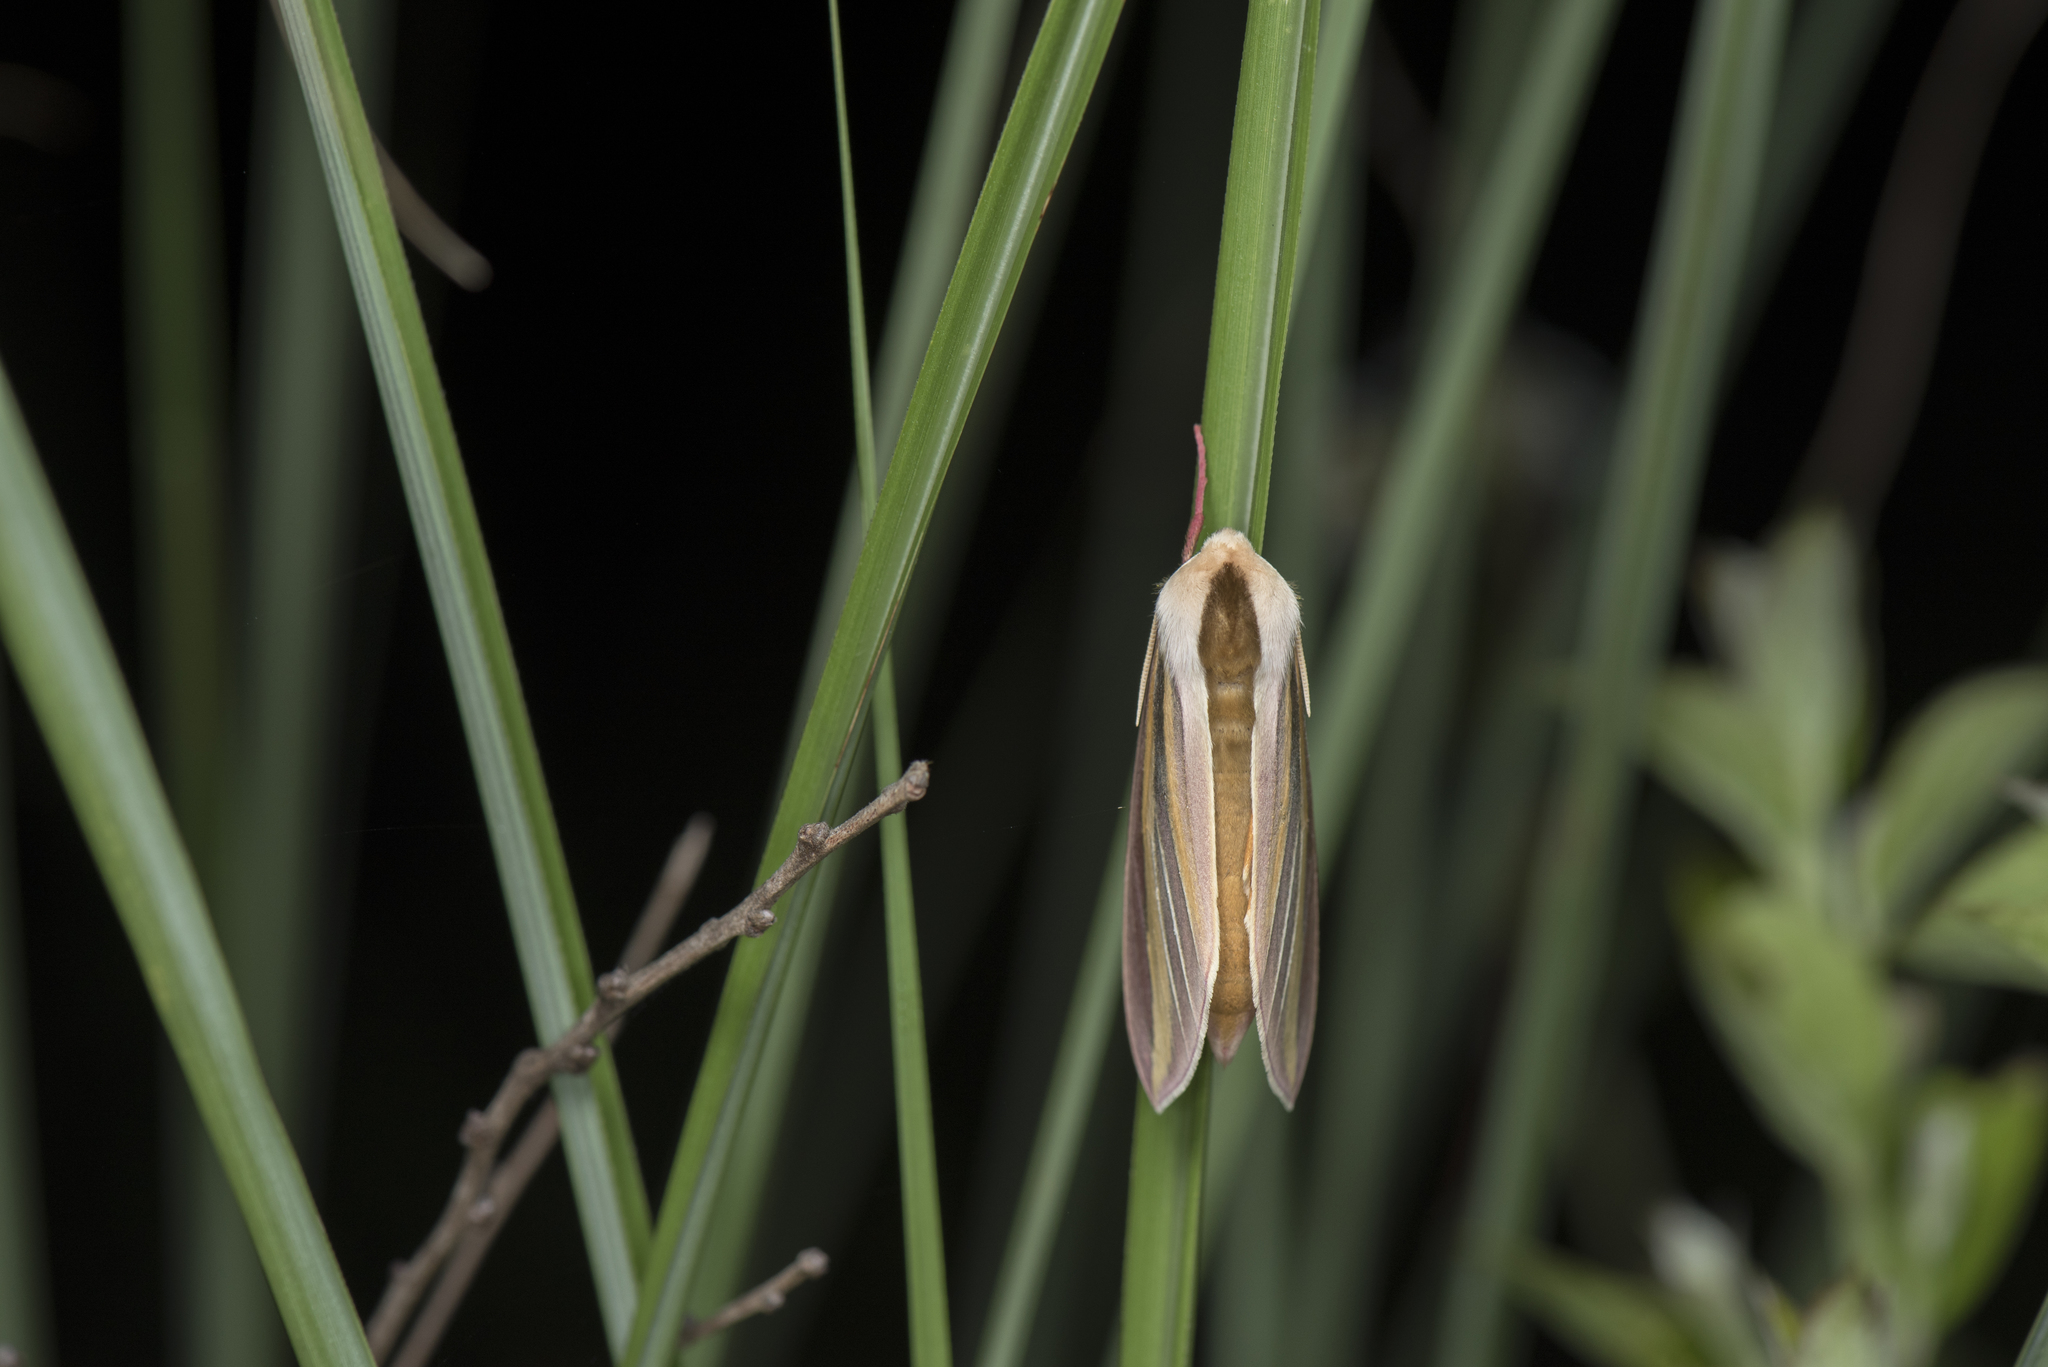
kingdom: Animalia
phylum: Arthropoda
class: Insecta
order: Lepidoptera
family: Sphingidae
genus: Leucophlebia
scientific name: Leucophlebia lineata
